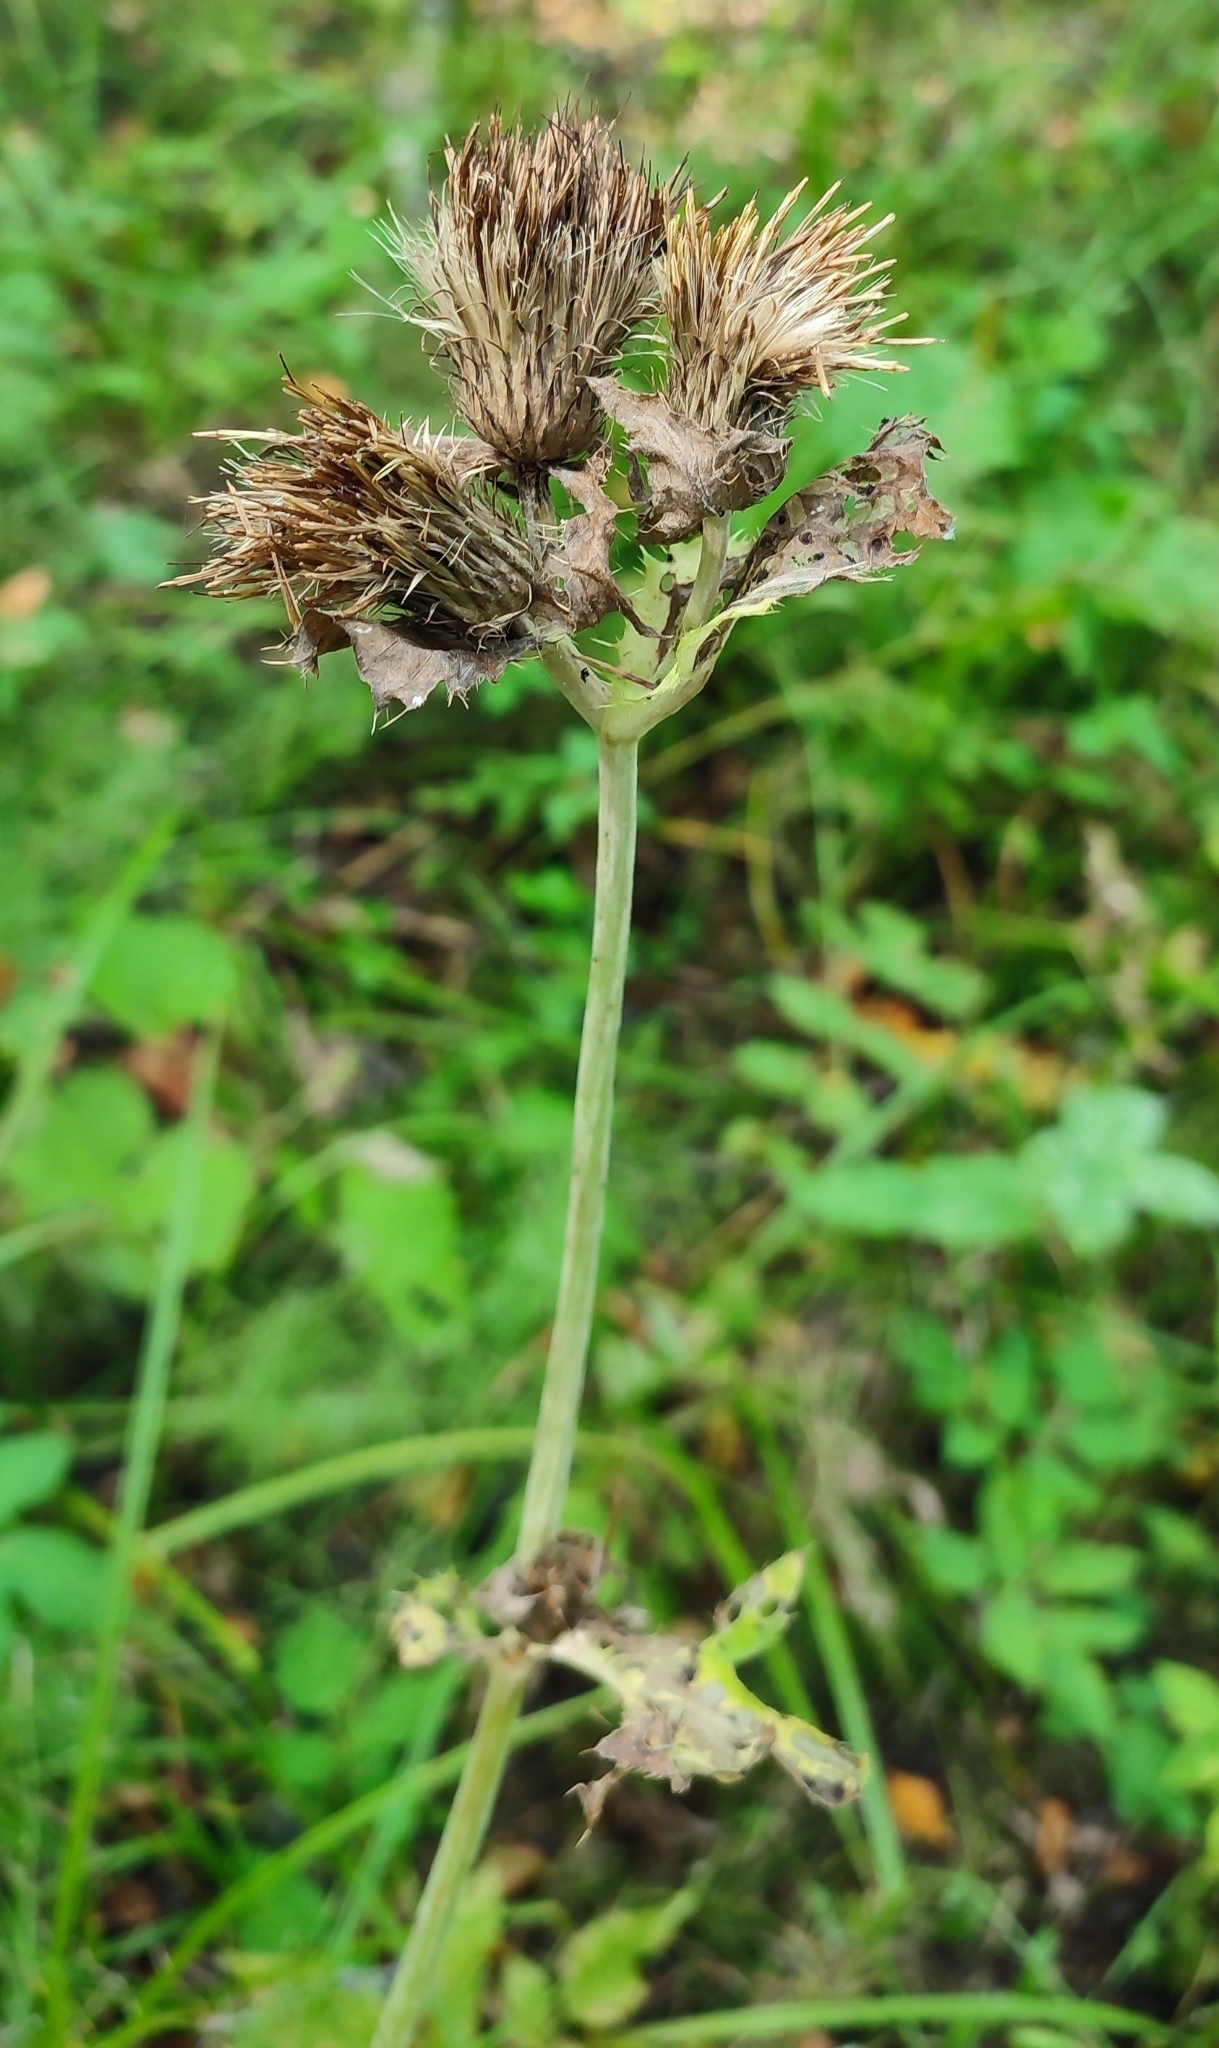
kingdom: Plantae
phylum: Tracheophyta
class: Magnoliopsida
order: Asterales
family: Asteraceae
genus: Cirsium
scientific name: Cirsium oleraceum
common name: Cabbage thistle
